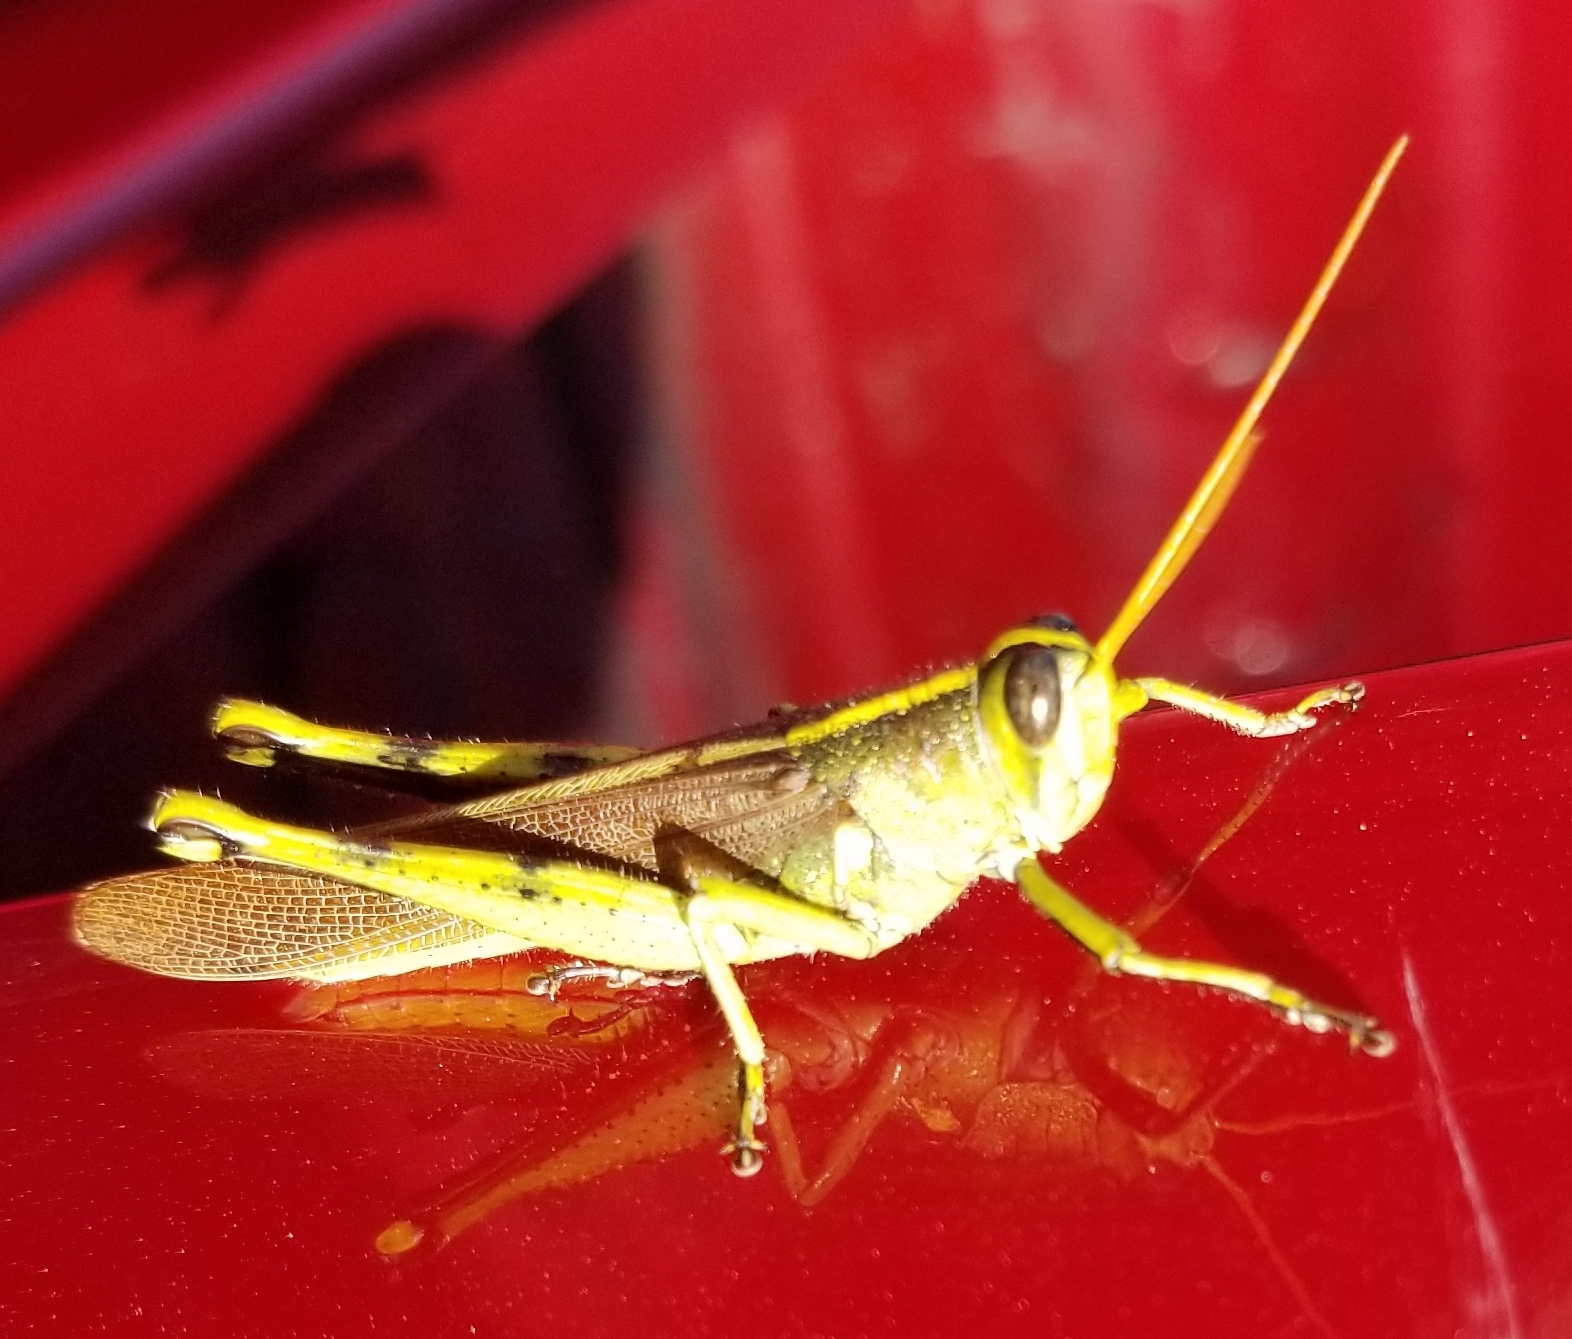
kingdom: Animalia
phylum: Arthropoda
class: Insecta
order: Orthoptera
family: Acrididae
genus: Schistocerca
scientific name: Schistocerca obscura
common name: Obscure bird grasshopper
